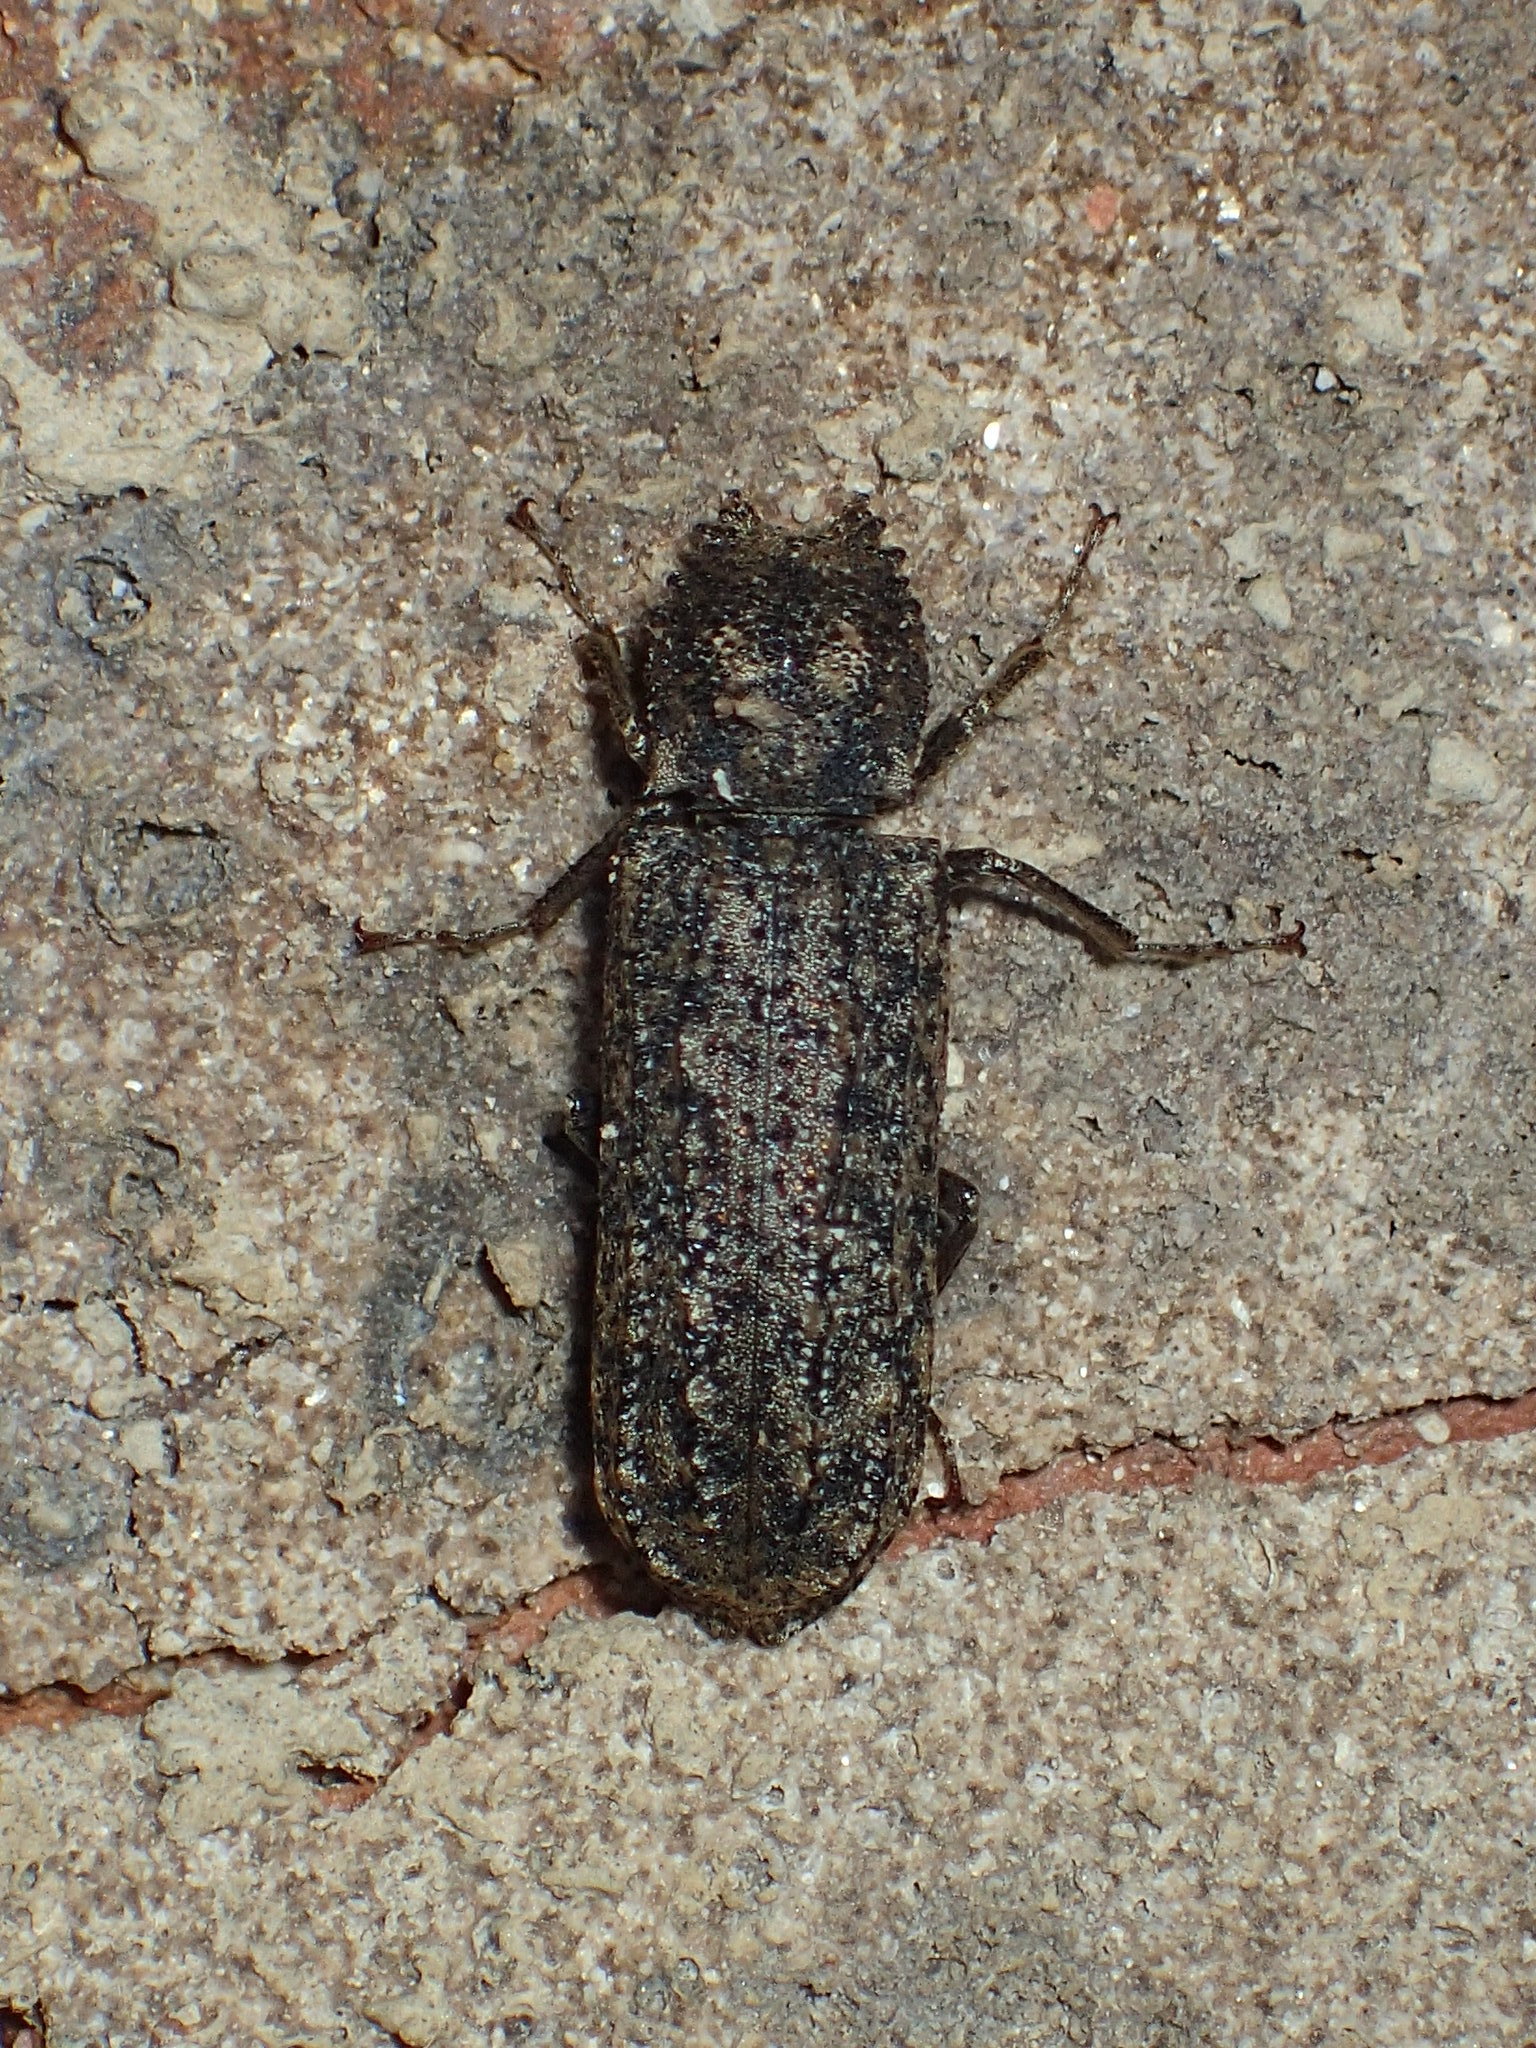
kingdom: Animalia
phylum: Arthropoda
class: Insecta
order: Coleoptera
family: Bostrichidae
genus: Lichenophanes
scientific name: Lichenophanes bicornis
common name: Two-horned powder-post beetle
